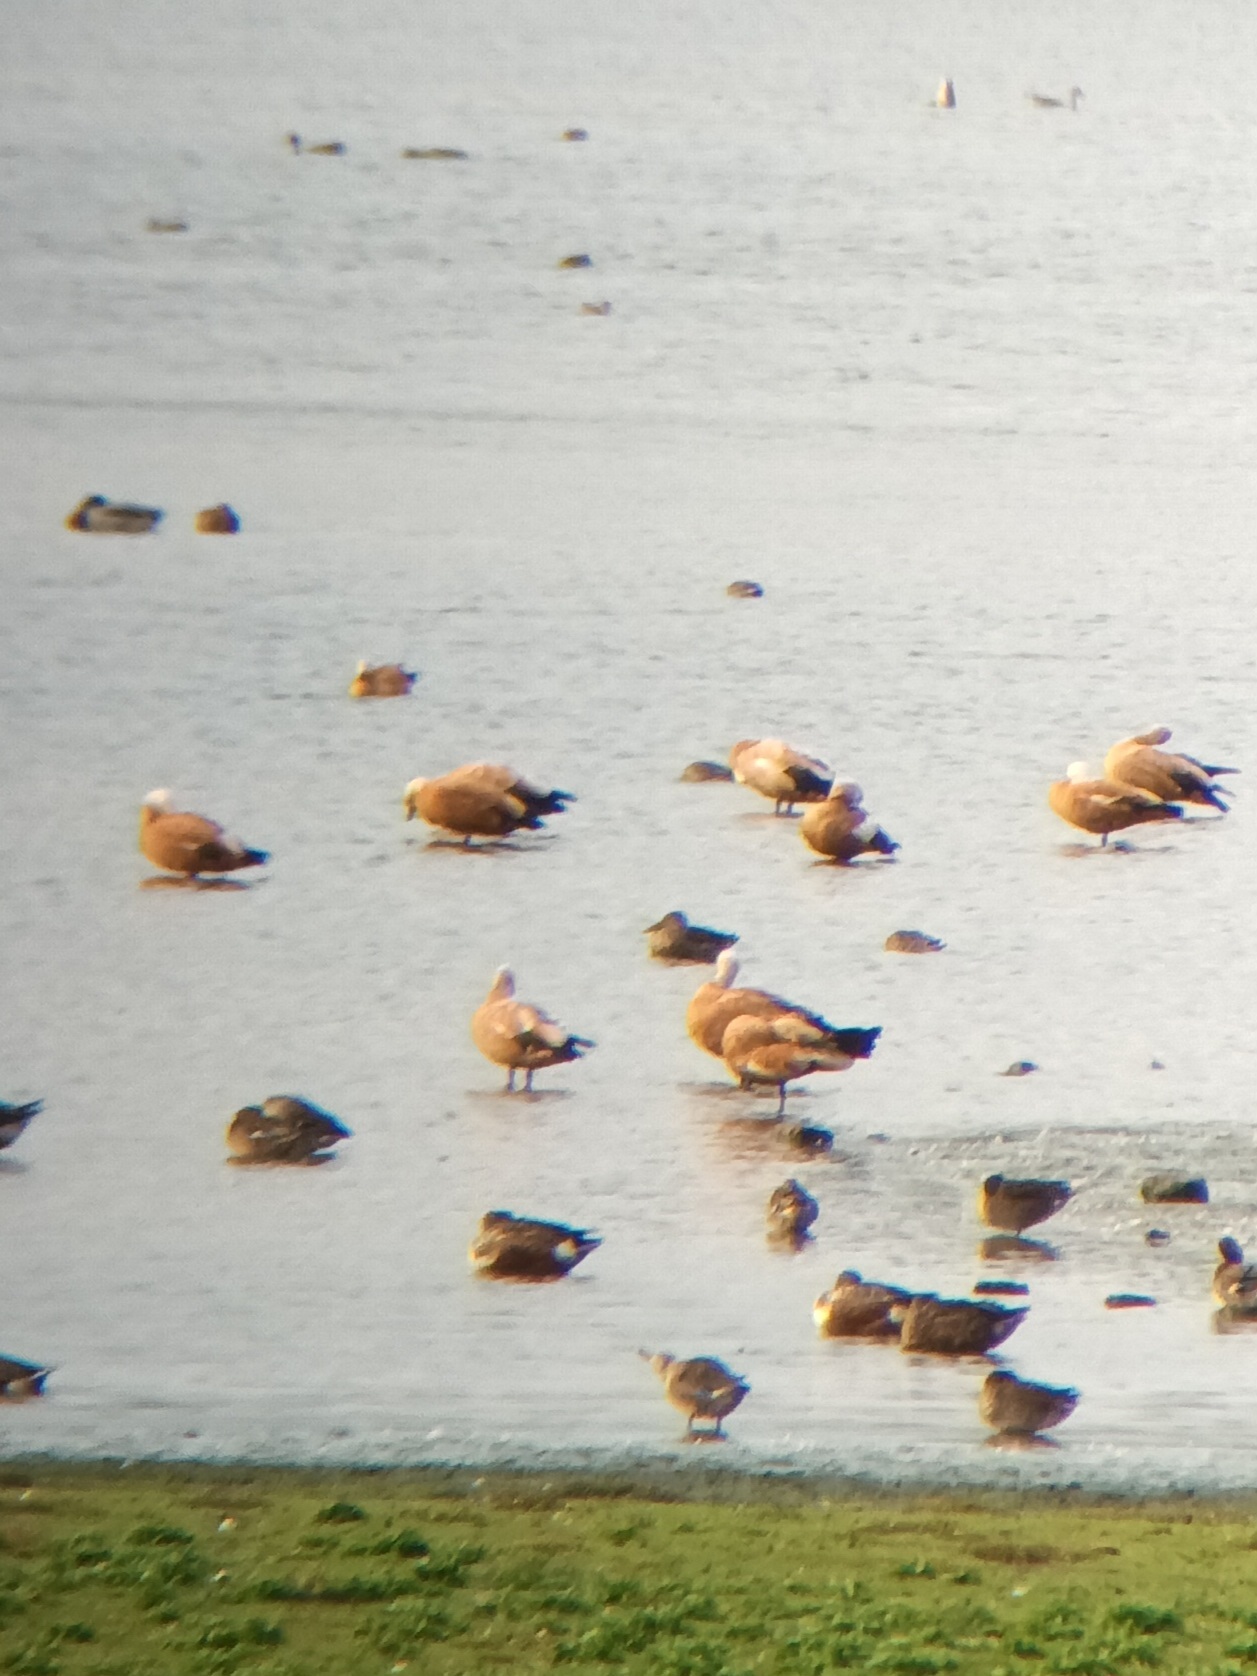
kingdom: Animalia
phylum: Chordata
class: Aves
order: Anseriformes
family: Anatidae
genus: Tadorna
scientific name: Tadorna ferruginea
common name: Ruddy shelduck
